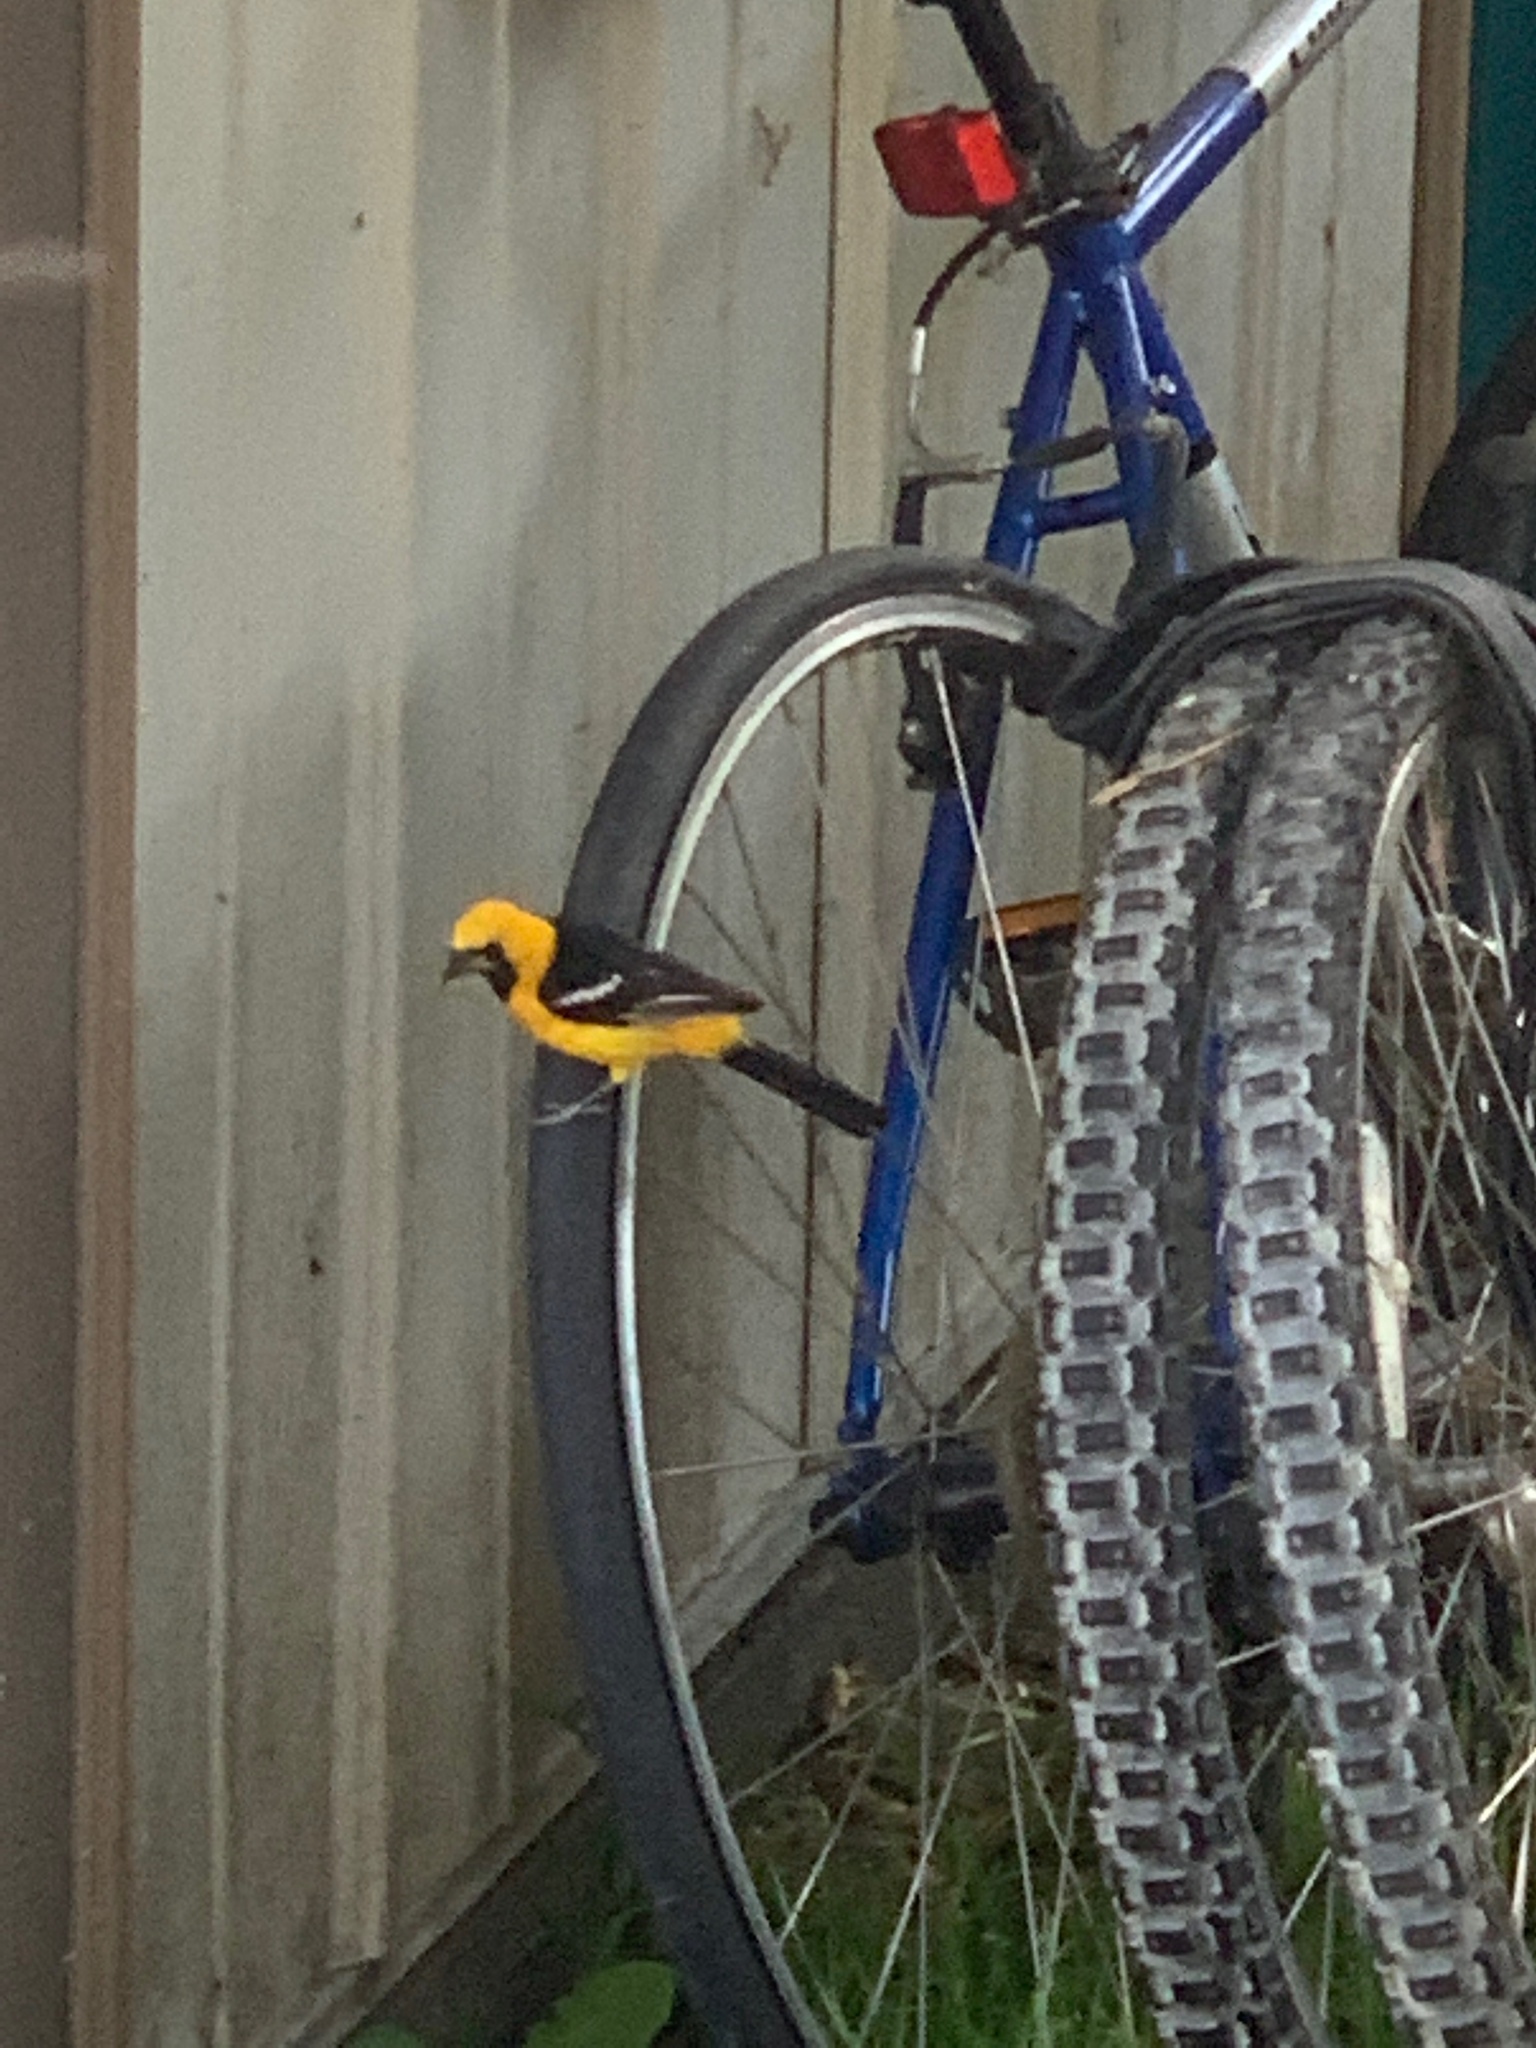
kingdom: Animalia
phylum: Chordata
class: Aves
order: Passeriformes
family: Icteridae
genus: Icterus
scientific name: Icterus cucullatus
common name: Hooded oriole
